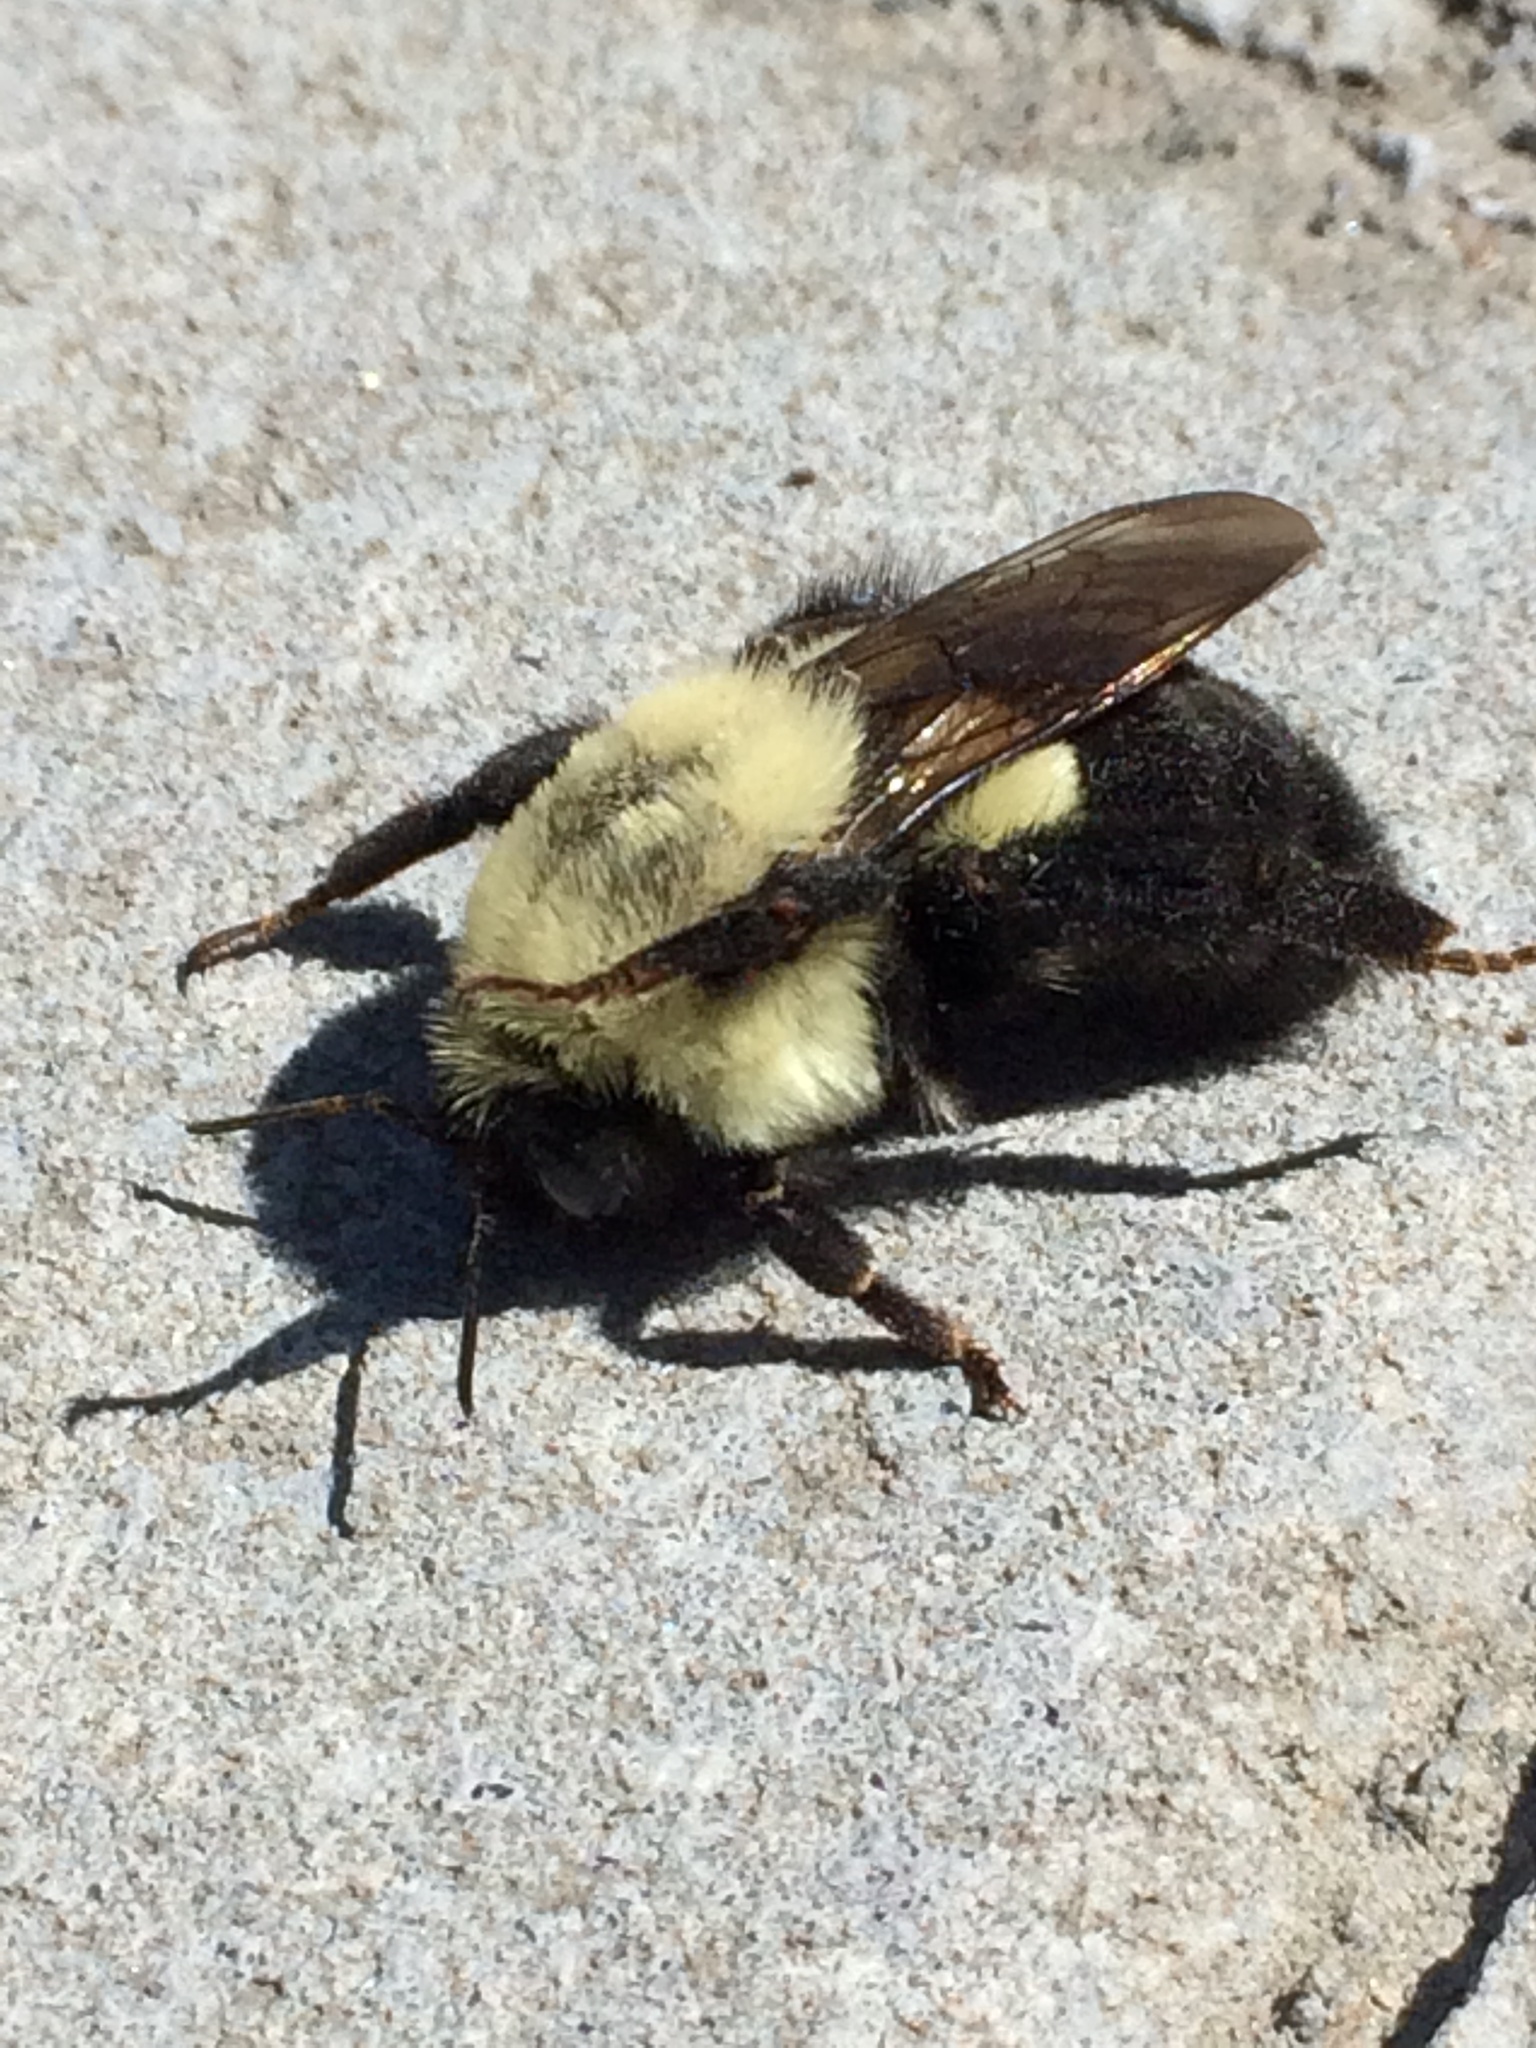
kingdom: Animalia
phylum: Arthropoda
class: Insecta
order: Hymenoptera
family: Apidae
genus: Bombus
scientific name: Bombus impatiens
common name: Common eastern bumble bee
